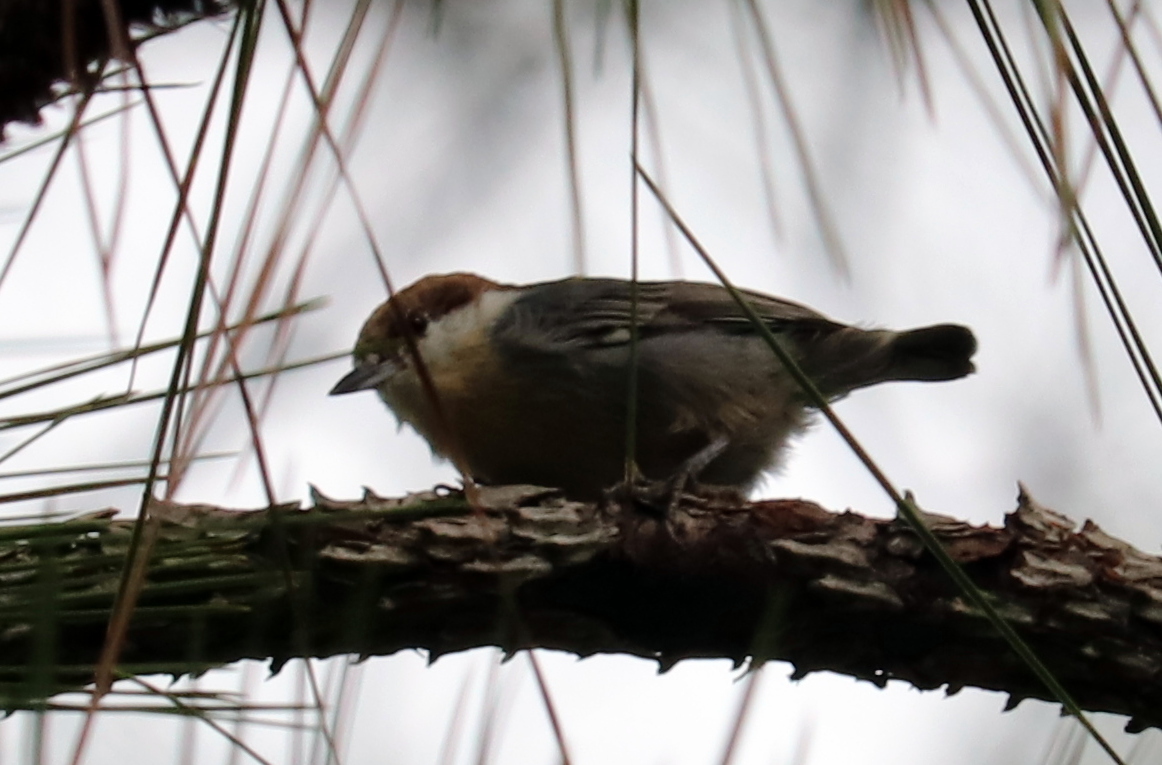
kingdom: Animalia
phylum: Chordata
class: Aves
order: Passeriformes
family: Sittidae
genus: Sitta
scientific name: Sitta pusilla
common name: Brown-headed nuthatch
